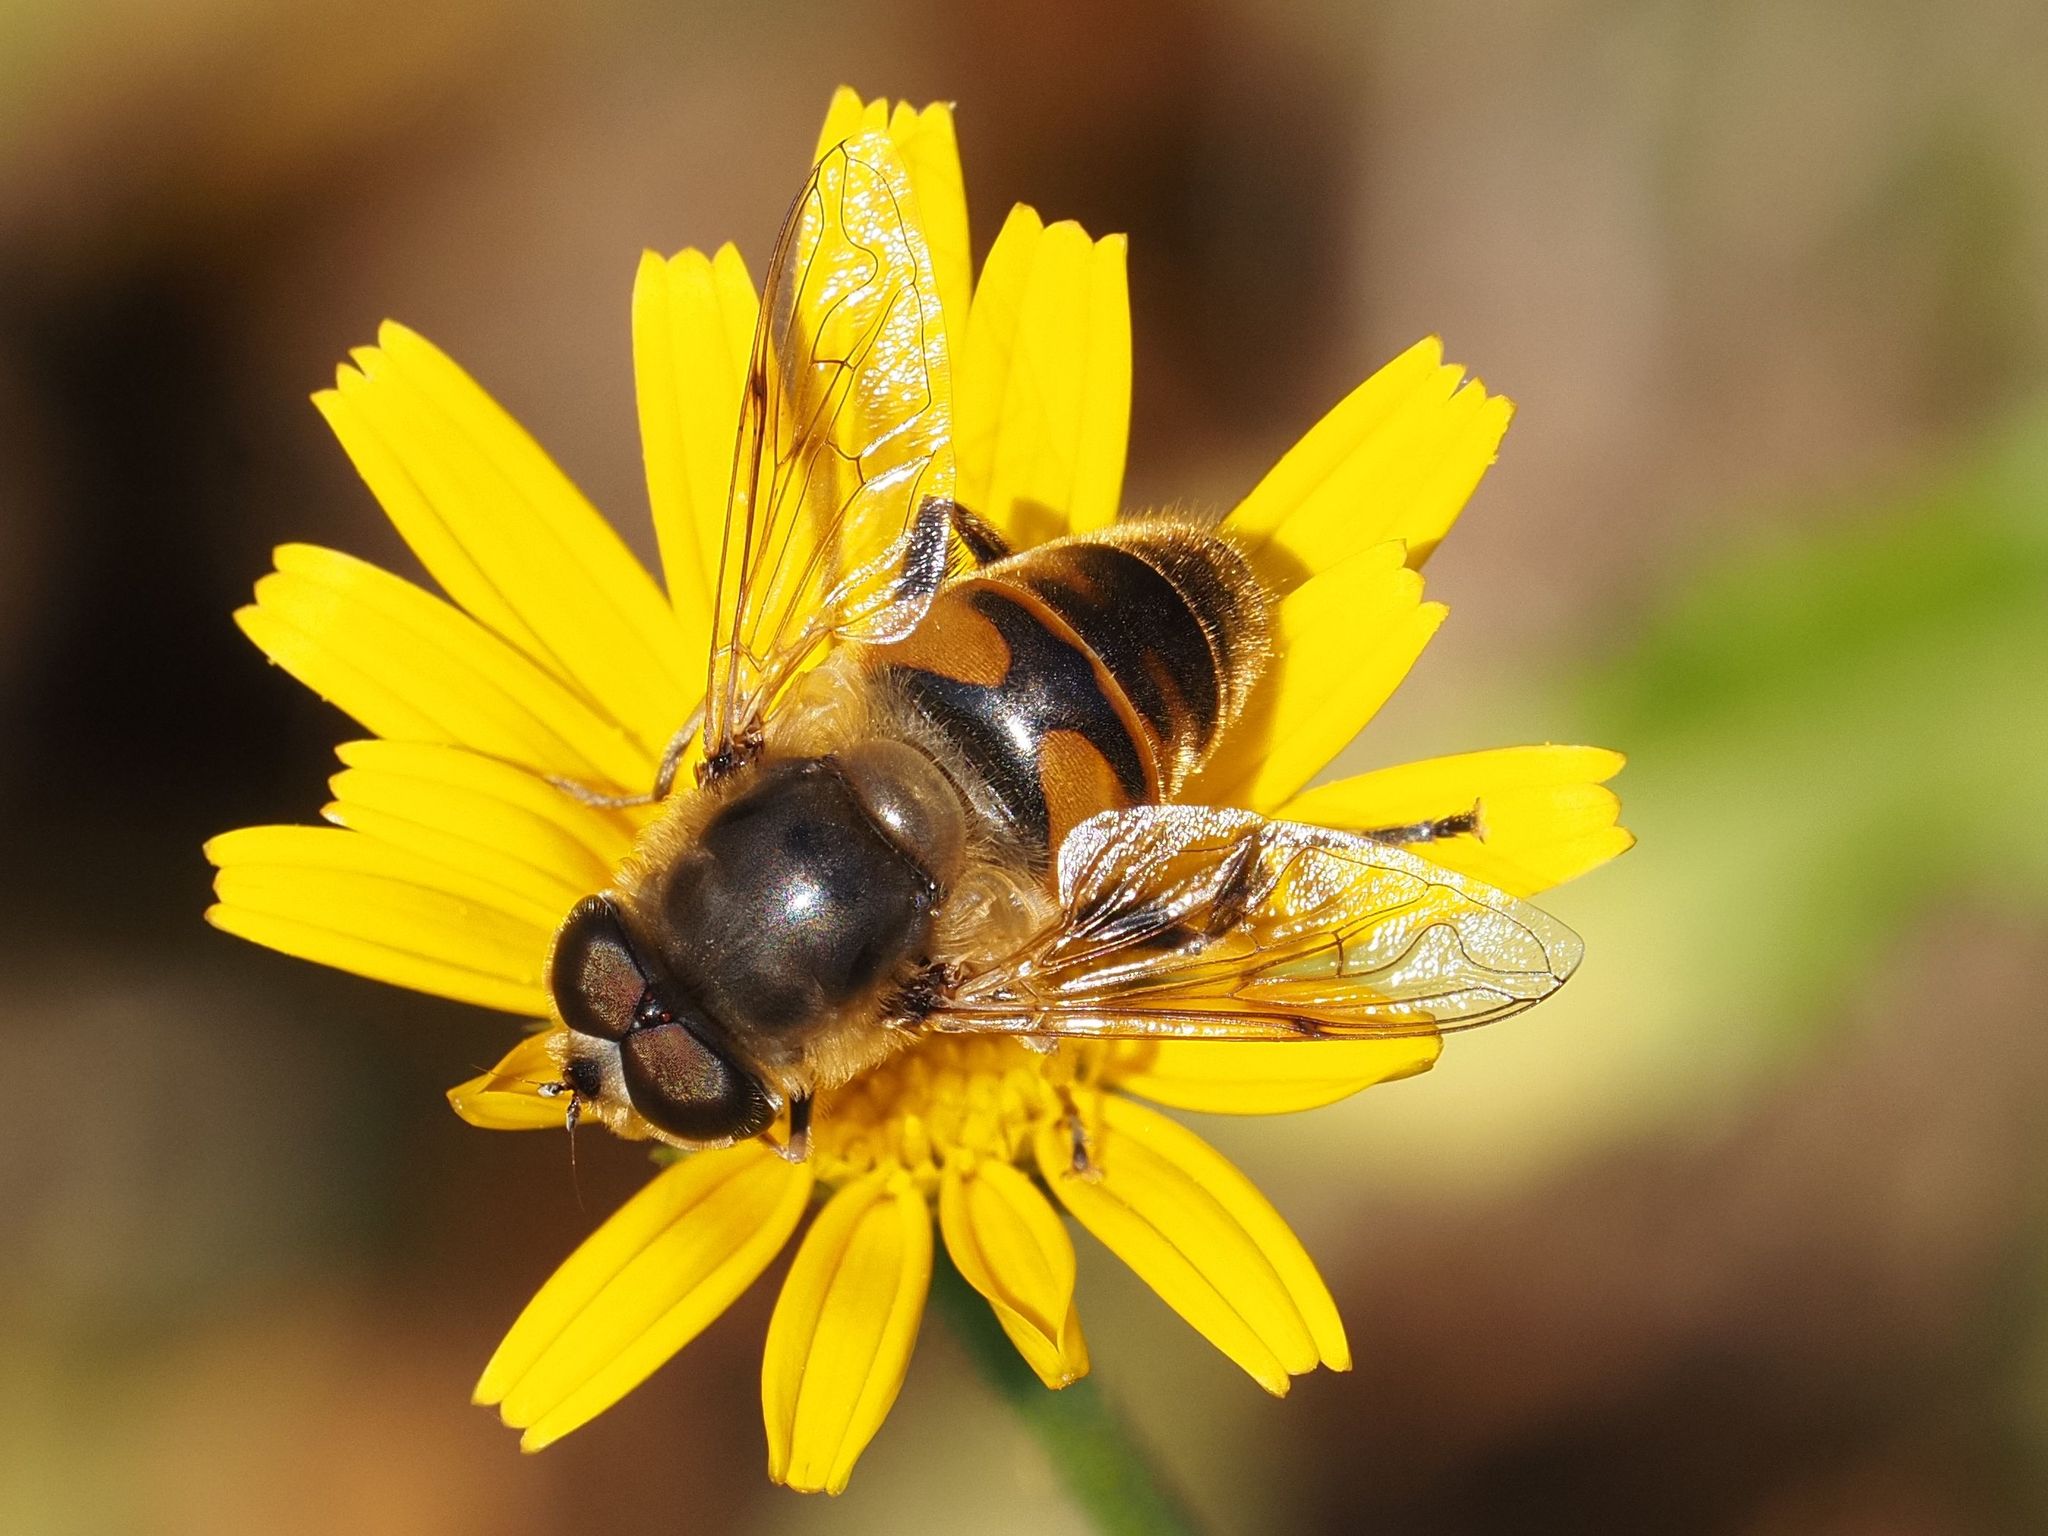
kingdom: Animalia
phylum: Arthropoda
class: Insecta
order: Diptera
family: Syrphidae
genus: Eristalis
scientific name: Eristalis tenax
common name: Drone fly
